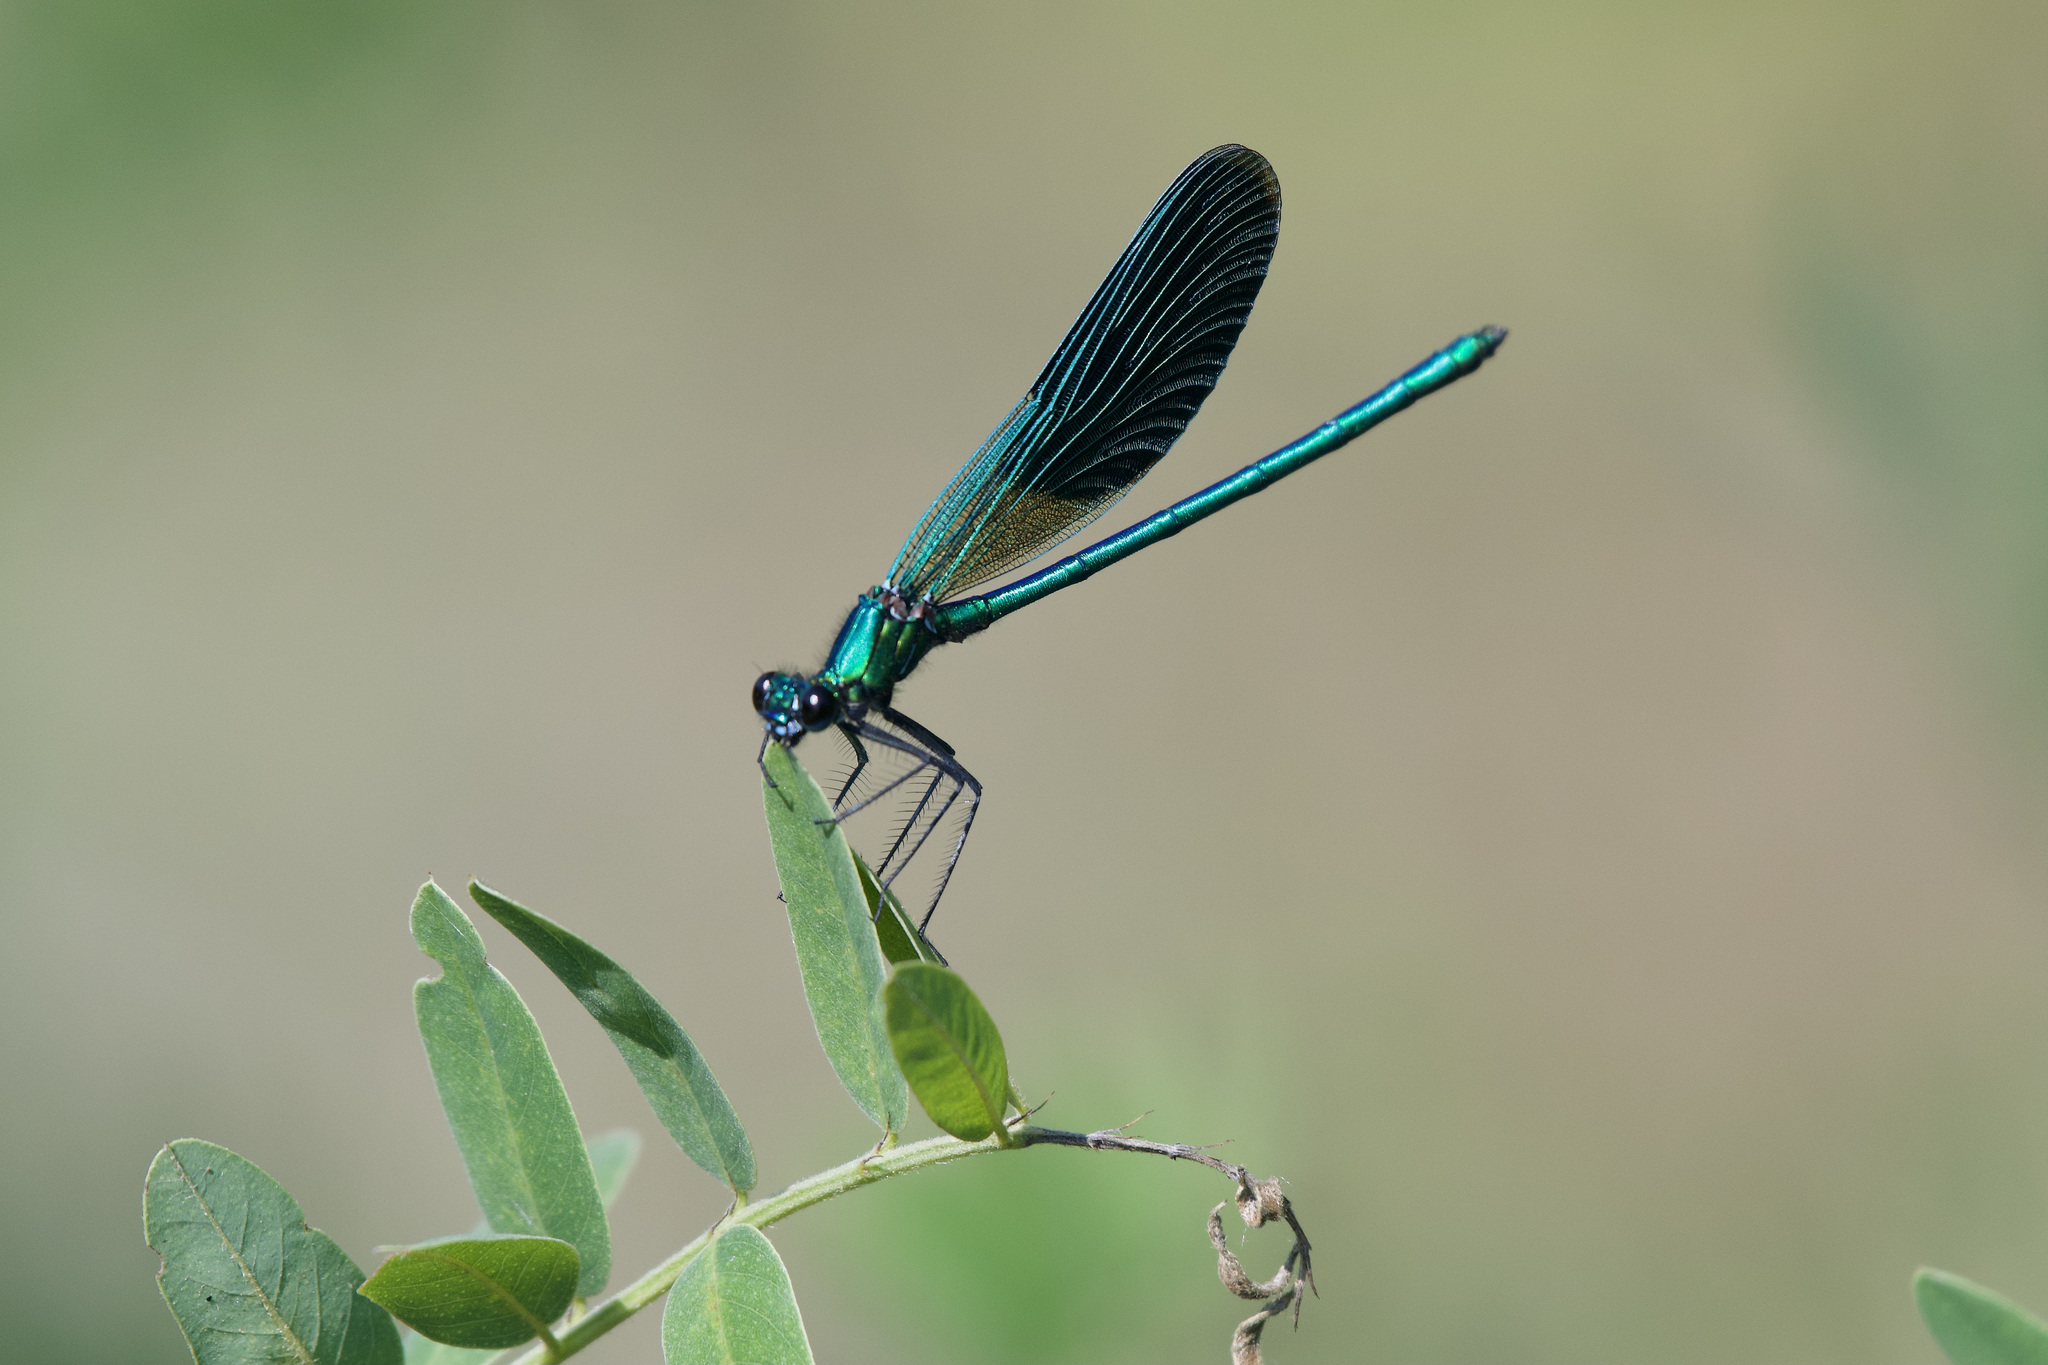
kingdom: Animalia
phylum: Arthropoda
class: Insecta
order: Odonata
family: Calopterygidae
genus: Calopteryx
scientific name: Calopteryx splendens
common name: Banded demoiselle
